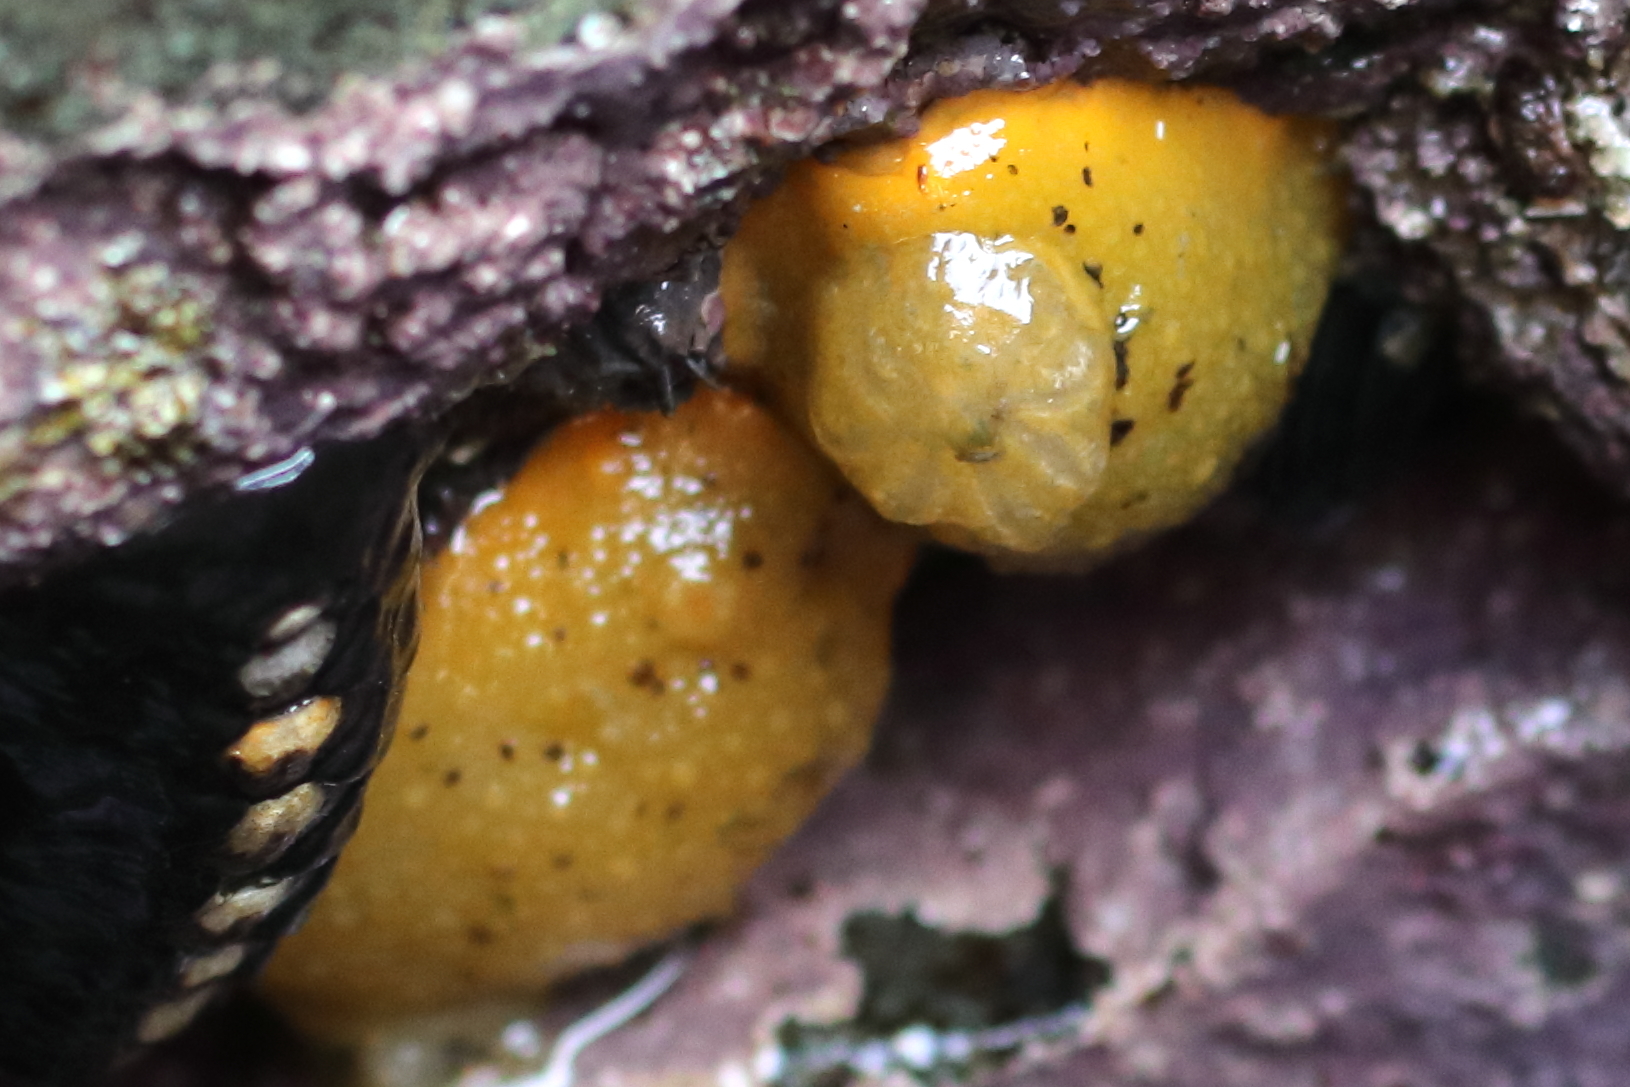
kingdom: Animalia
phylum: Mollusca
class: Gastropoda
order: Nudibranchia
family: Dorididae
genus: Doris
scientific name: Doris montereyensis
